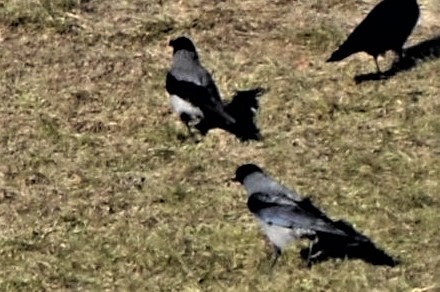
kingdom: Animalia
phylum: Chordata
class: Aves
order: Passeriformes
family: Corvidae
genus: Corvus
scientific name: Corvus cornix
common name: Hooded crow
